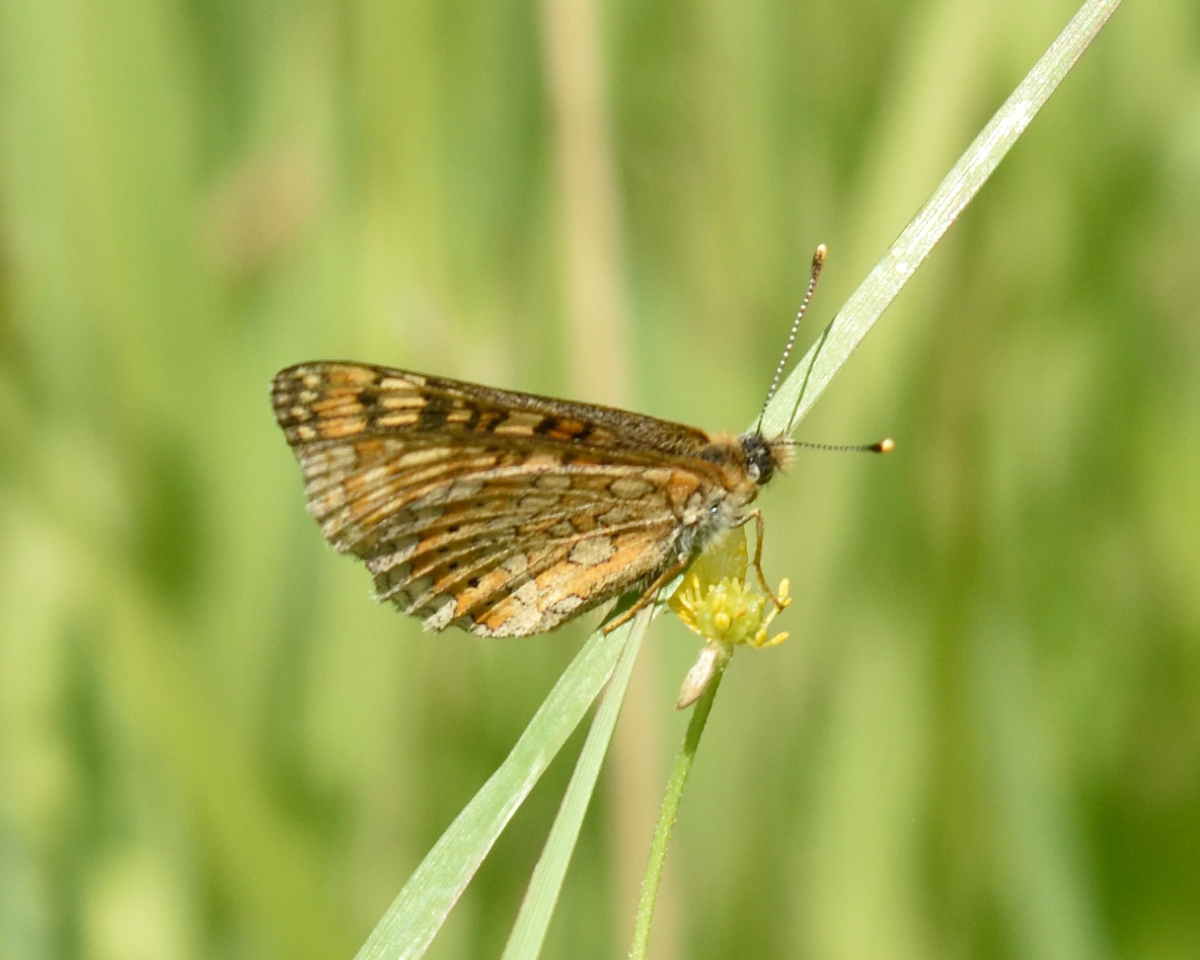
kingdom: Animalia
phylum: Arthropoda
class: Insecta
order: Lepidoptera
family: Nymphalidae
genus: Euphydryas
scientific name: Euphydryas aurinia
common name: Marsh fritillary
